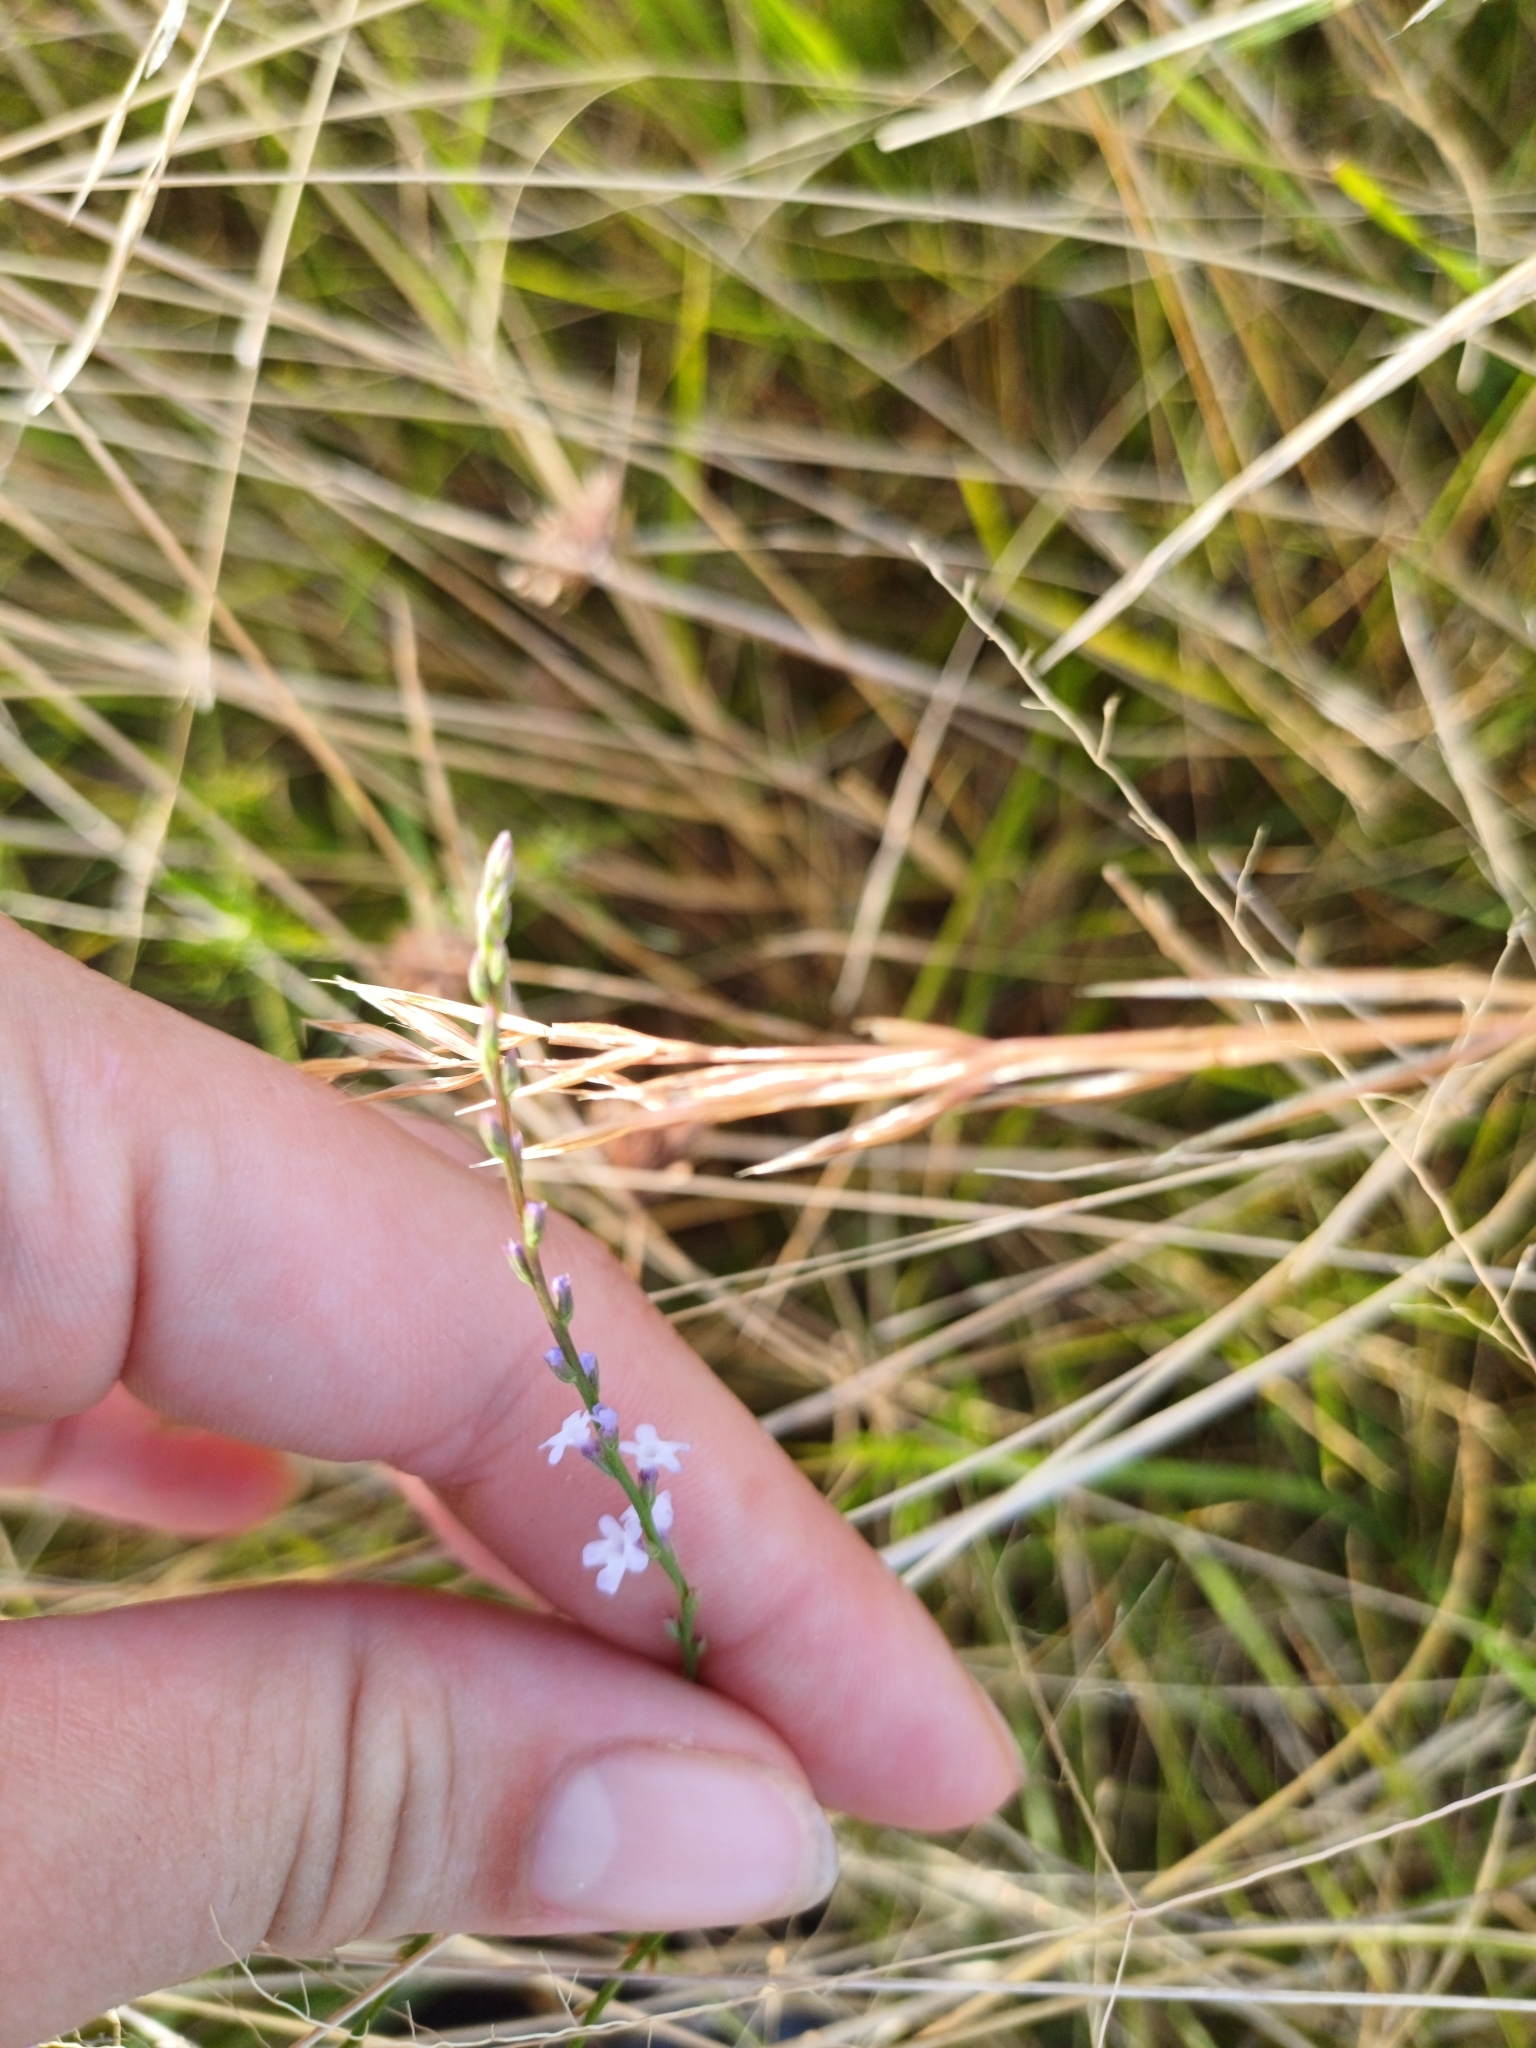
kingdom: Plantae
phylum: Tracheophyta
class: Magnoliopsida
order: Lamiales
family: Verbenaceae
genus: Verbena
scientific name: Verbena gracilescens
